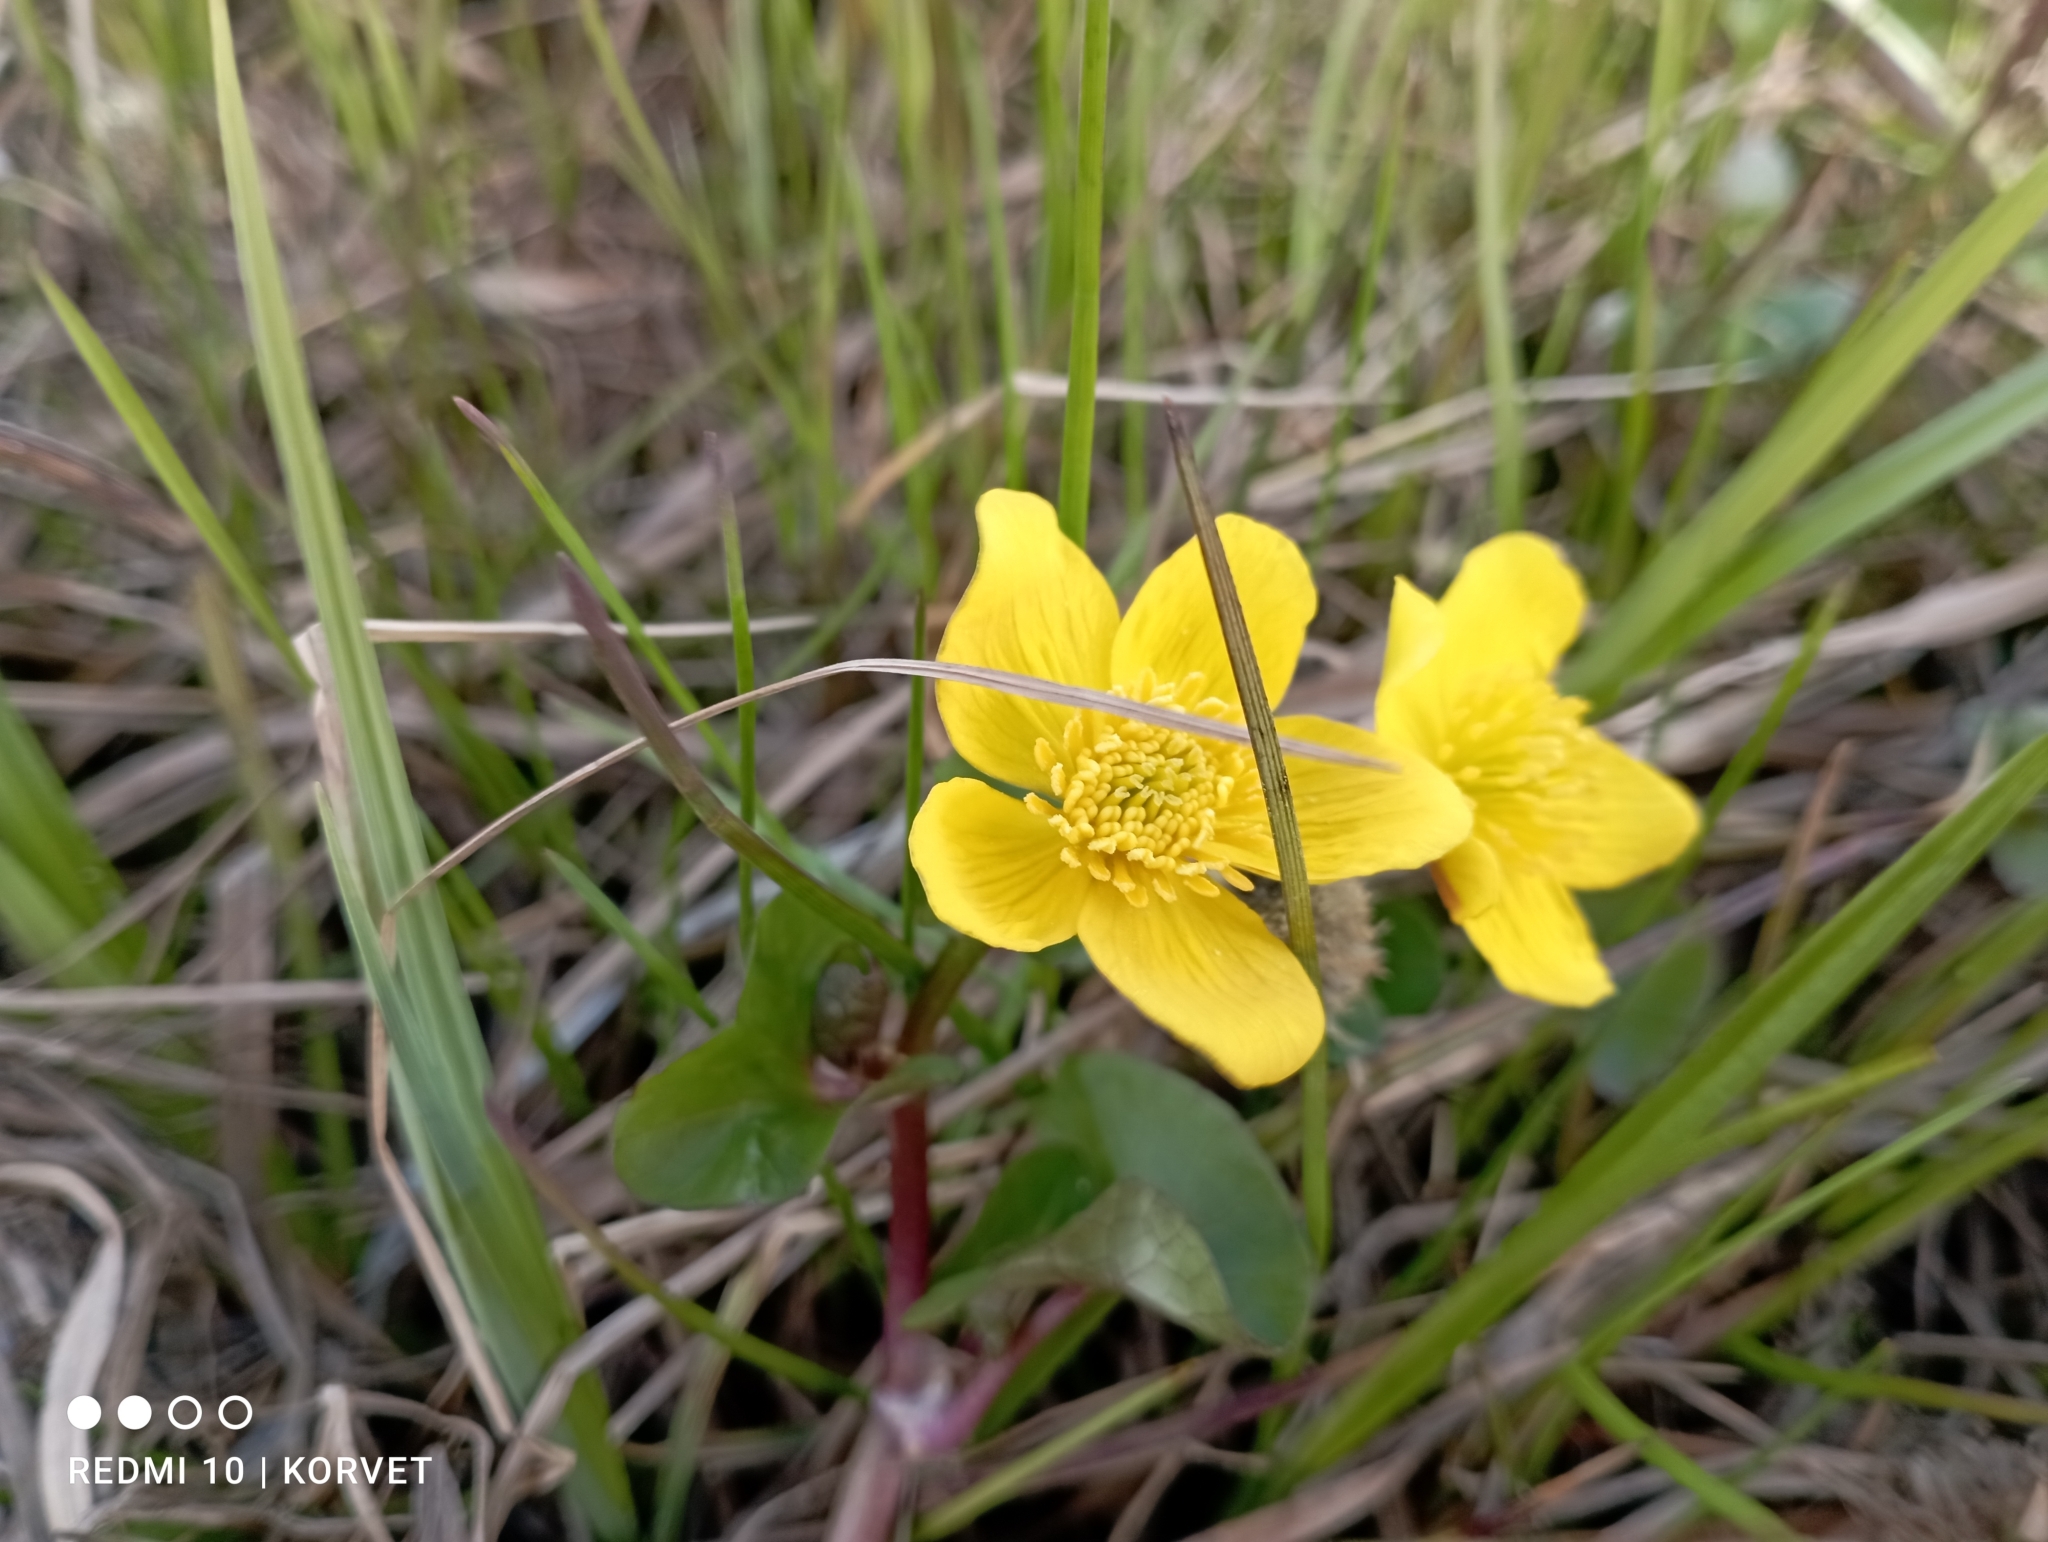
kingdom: Plantae
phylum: Tracheophyta
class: Magnoliopsida
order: Ranunculales
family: Ranunculaceae
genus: Caltha
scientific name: Caltha palustris
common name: Marsh marigold
